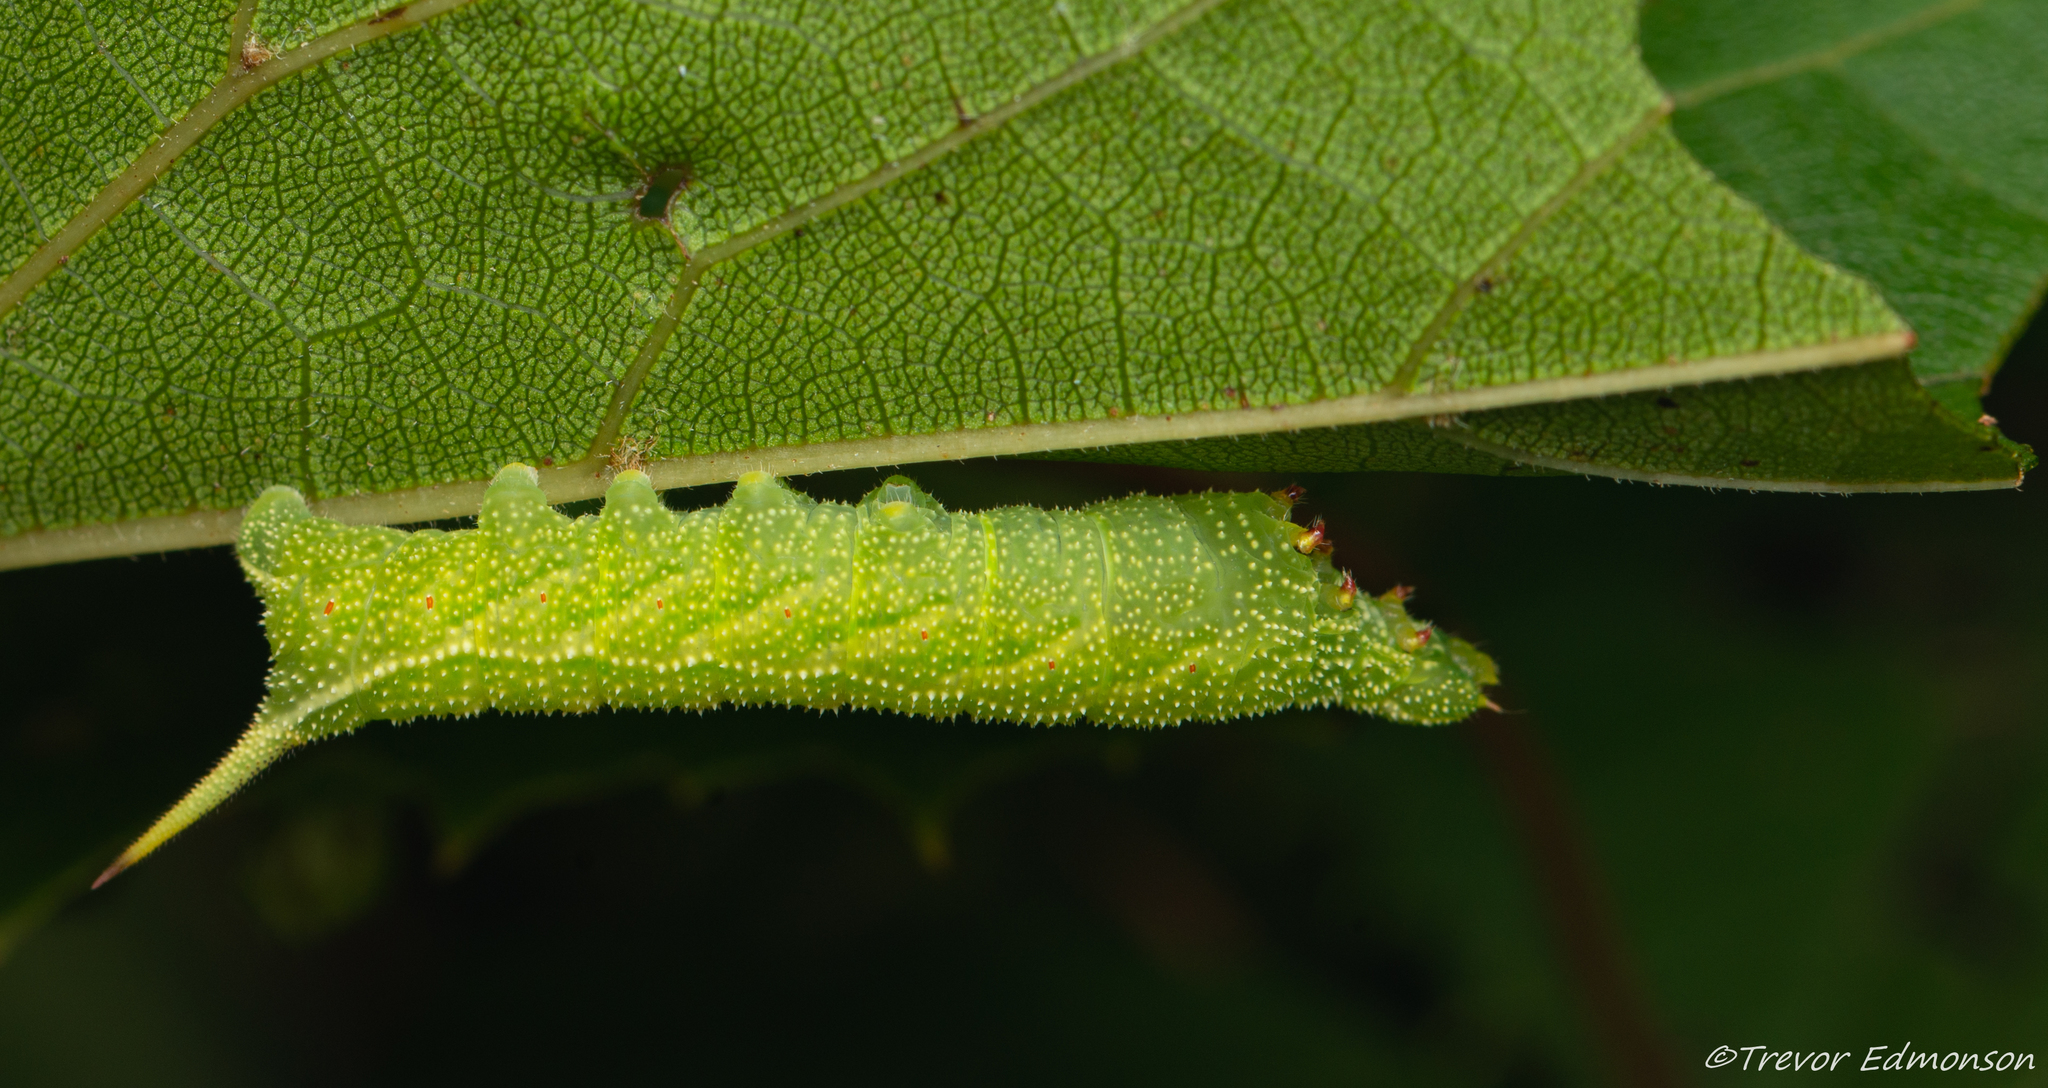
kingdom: Animalia
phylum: Arthropoda
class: Insecta
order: Lepidoptera
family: Sphingidae
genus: Darapsa
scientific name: Darapsa myron
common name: Hog sphinx
